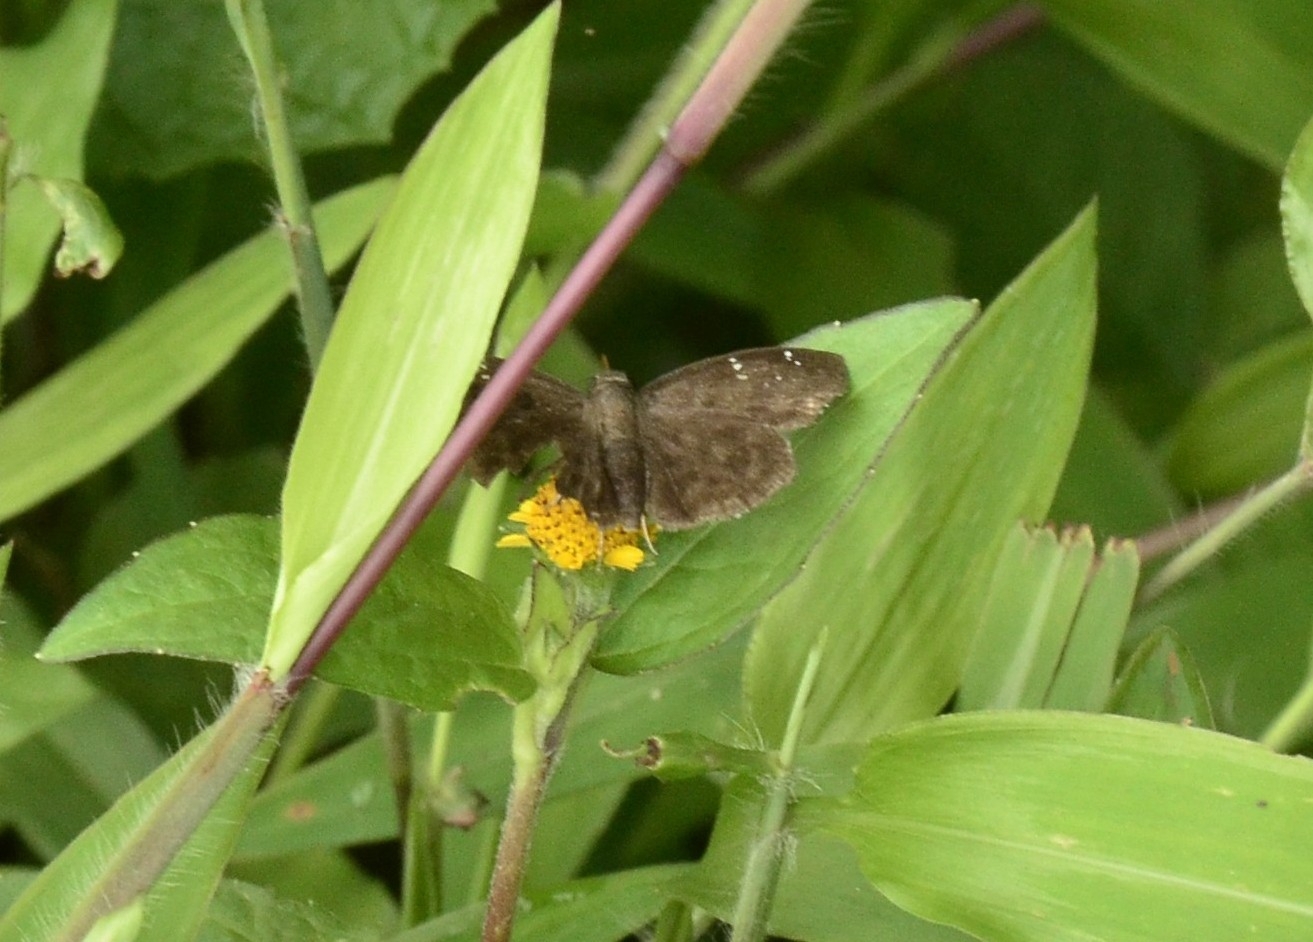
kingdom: Animalia
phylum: Arthropoda
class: Insecta
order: Lepidoptera
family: Hesperiidae
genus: Sarangesa
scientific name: Sarangesa dasahara
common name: Common small flat
